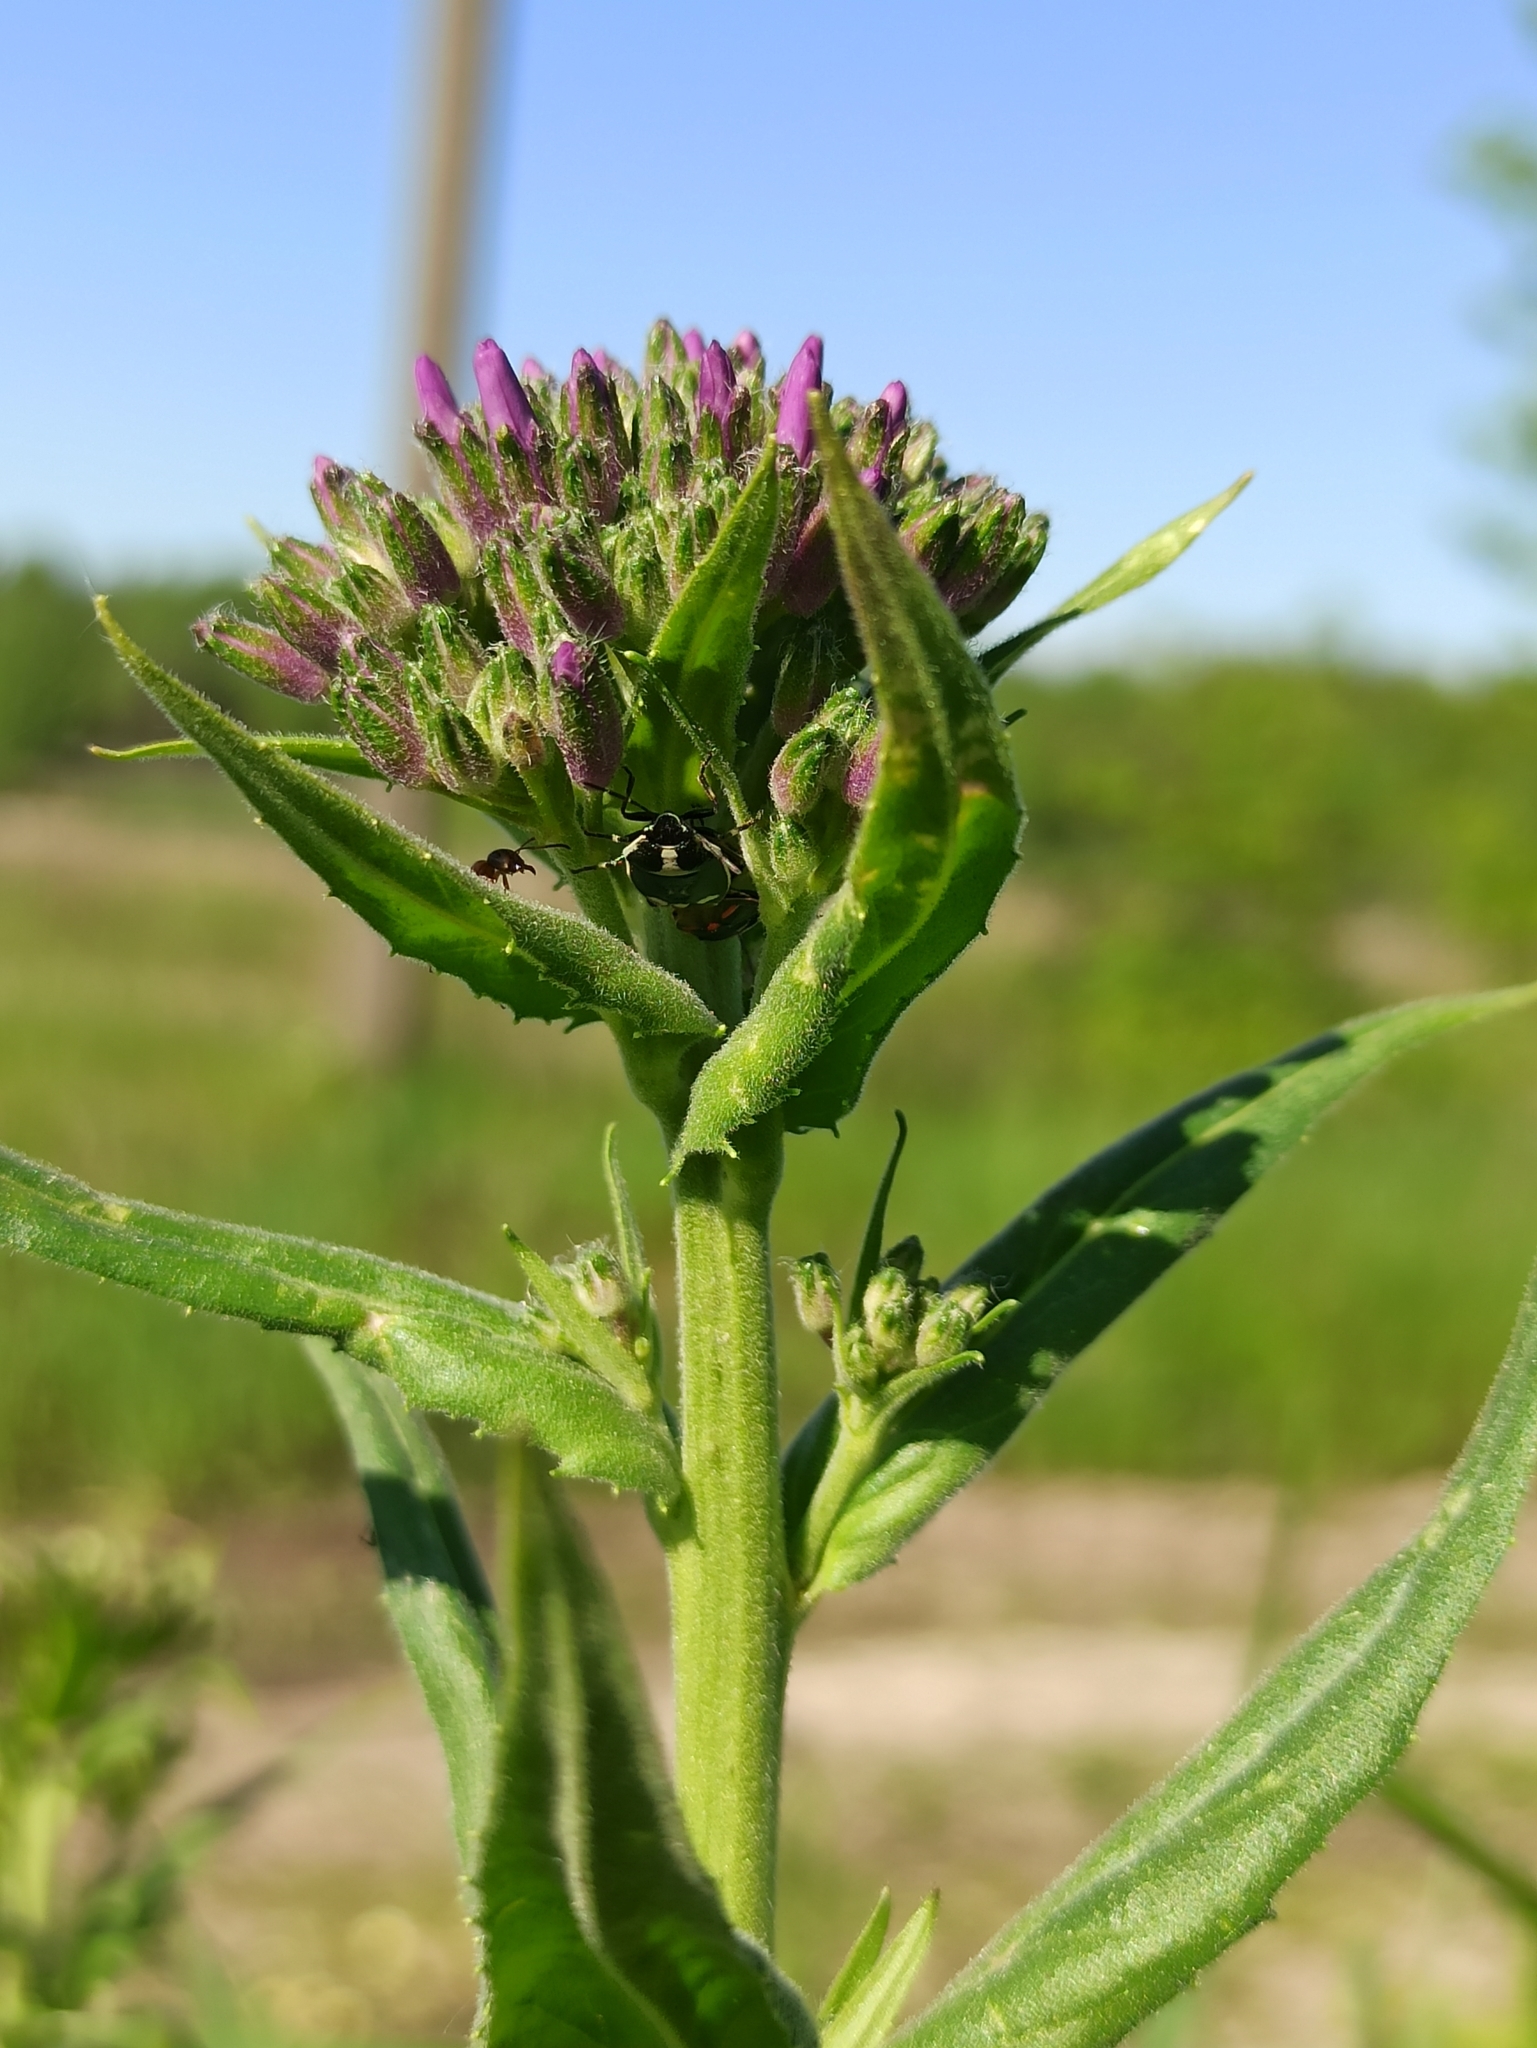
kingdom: Animalia
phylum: Arthropoda
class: Insecta
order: Hemiptera
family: Pentatomidae
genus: Eurydema
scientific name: Eurydema oleracea
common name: Cabbage bug
